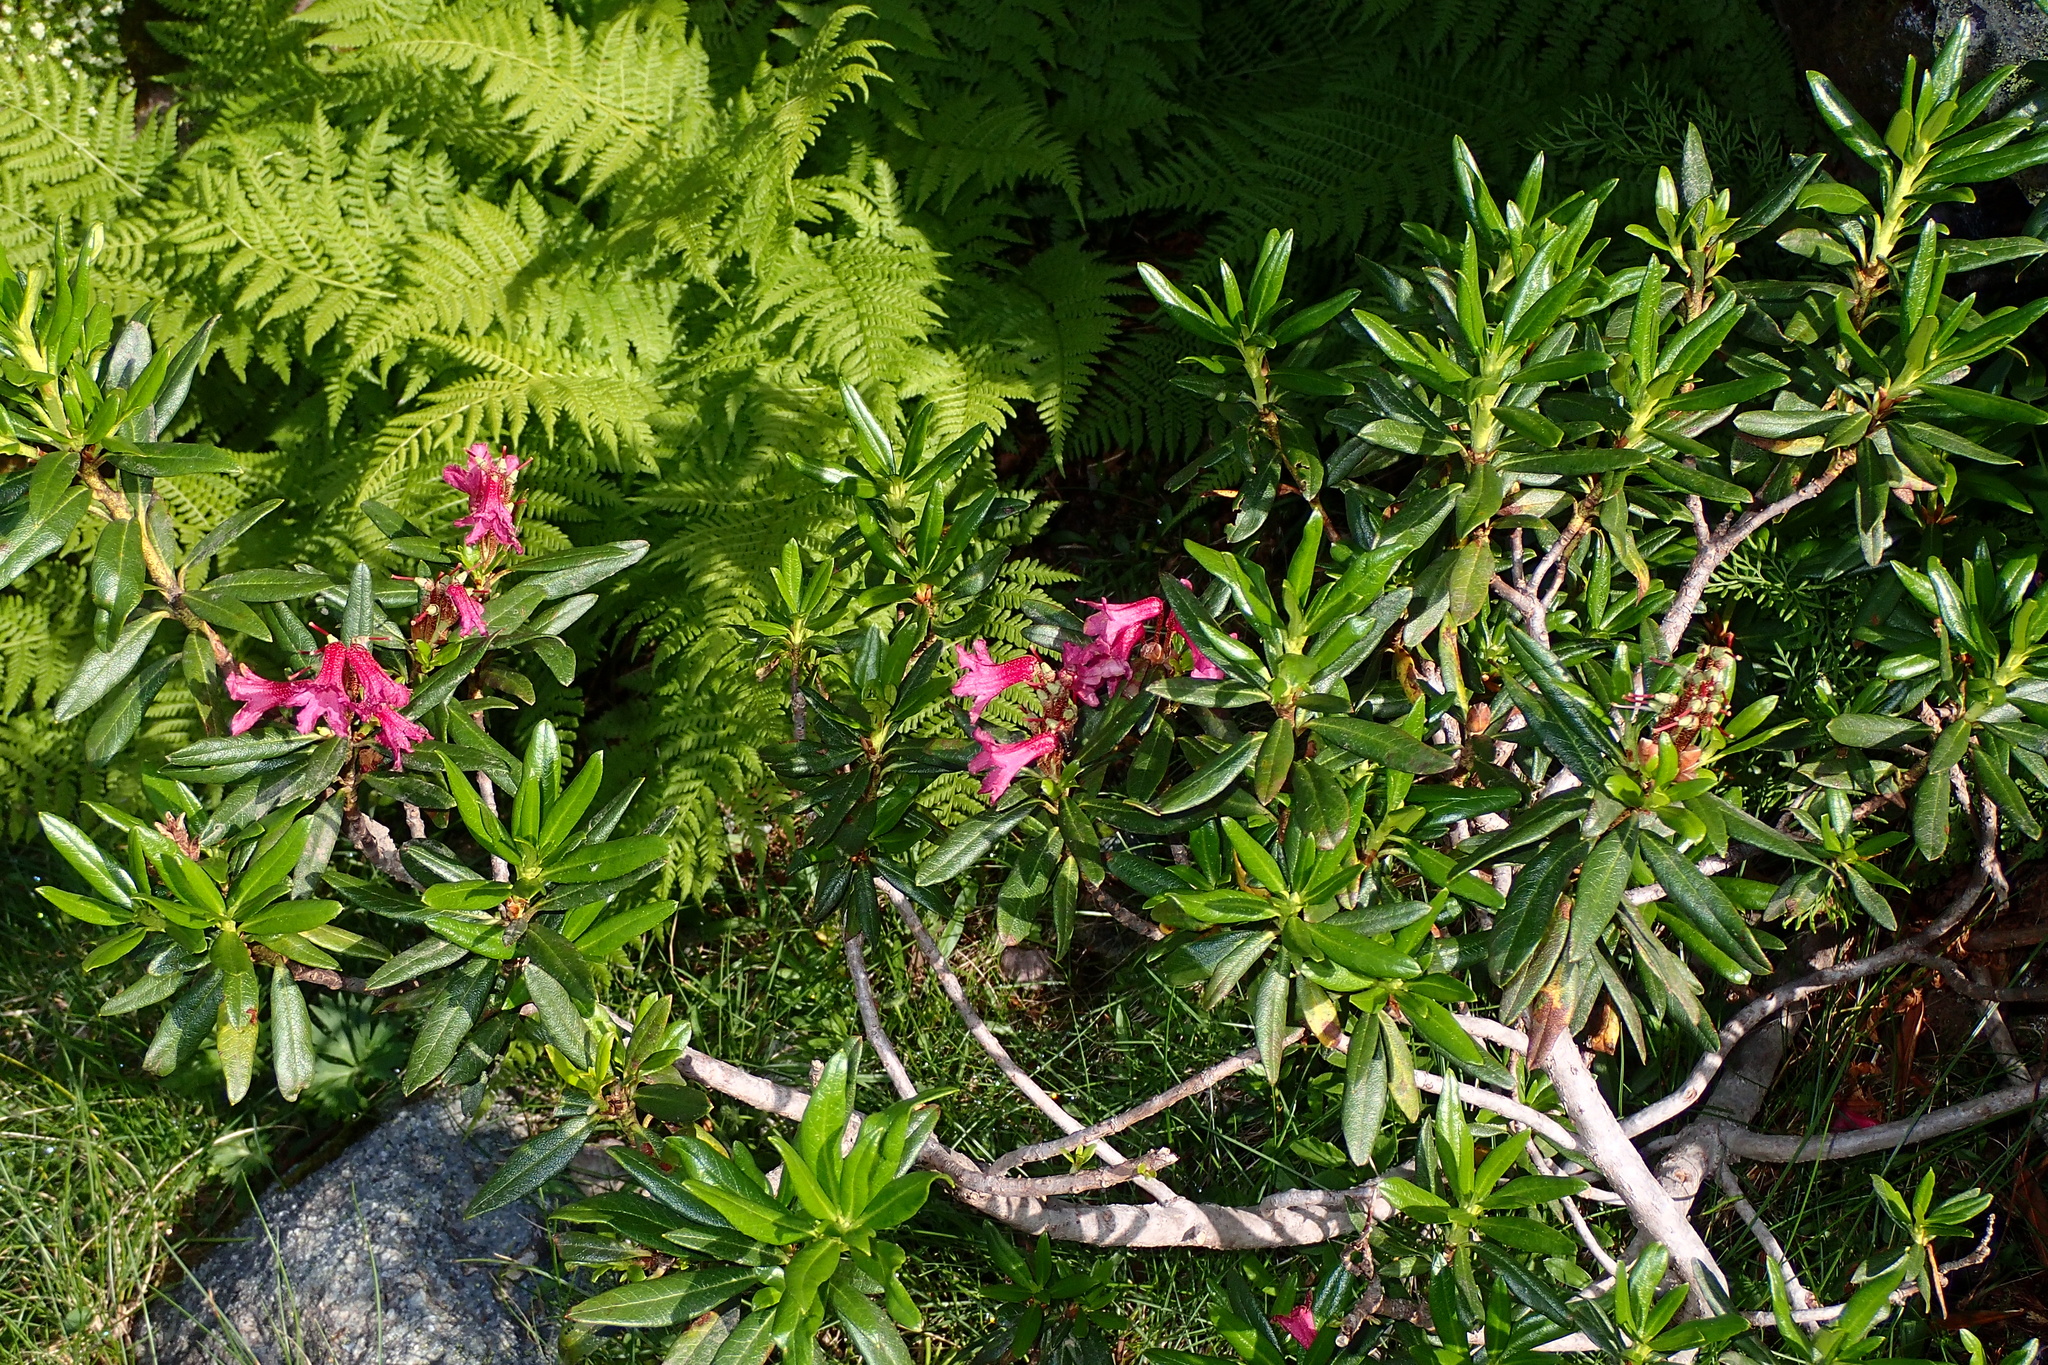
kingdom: Plantae
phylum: Tracheophyta
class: Magnoliopsida
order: Ericales
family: Ericaceae
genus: Rhododendron
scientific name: Rhododendron ferrugineum
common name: Alpenrose
